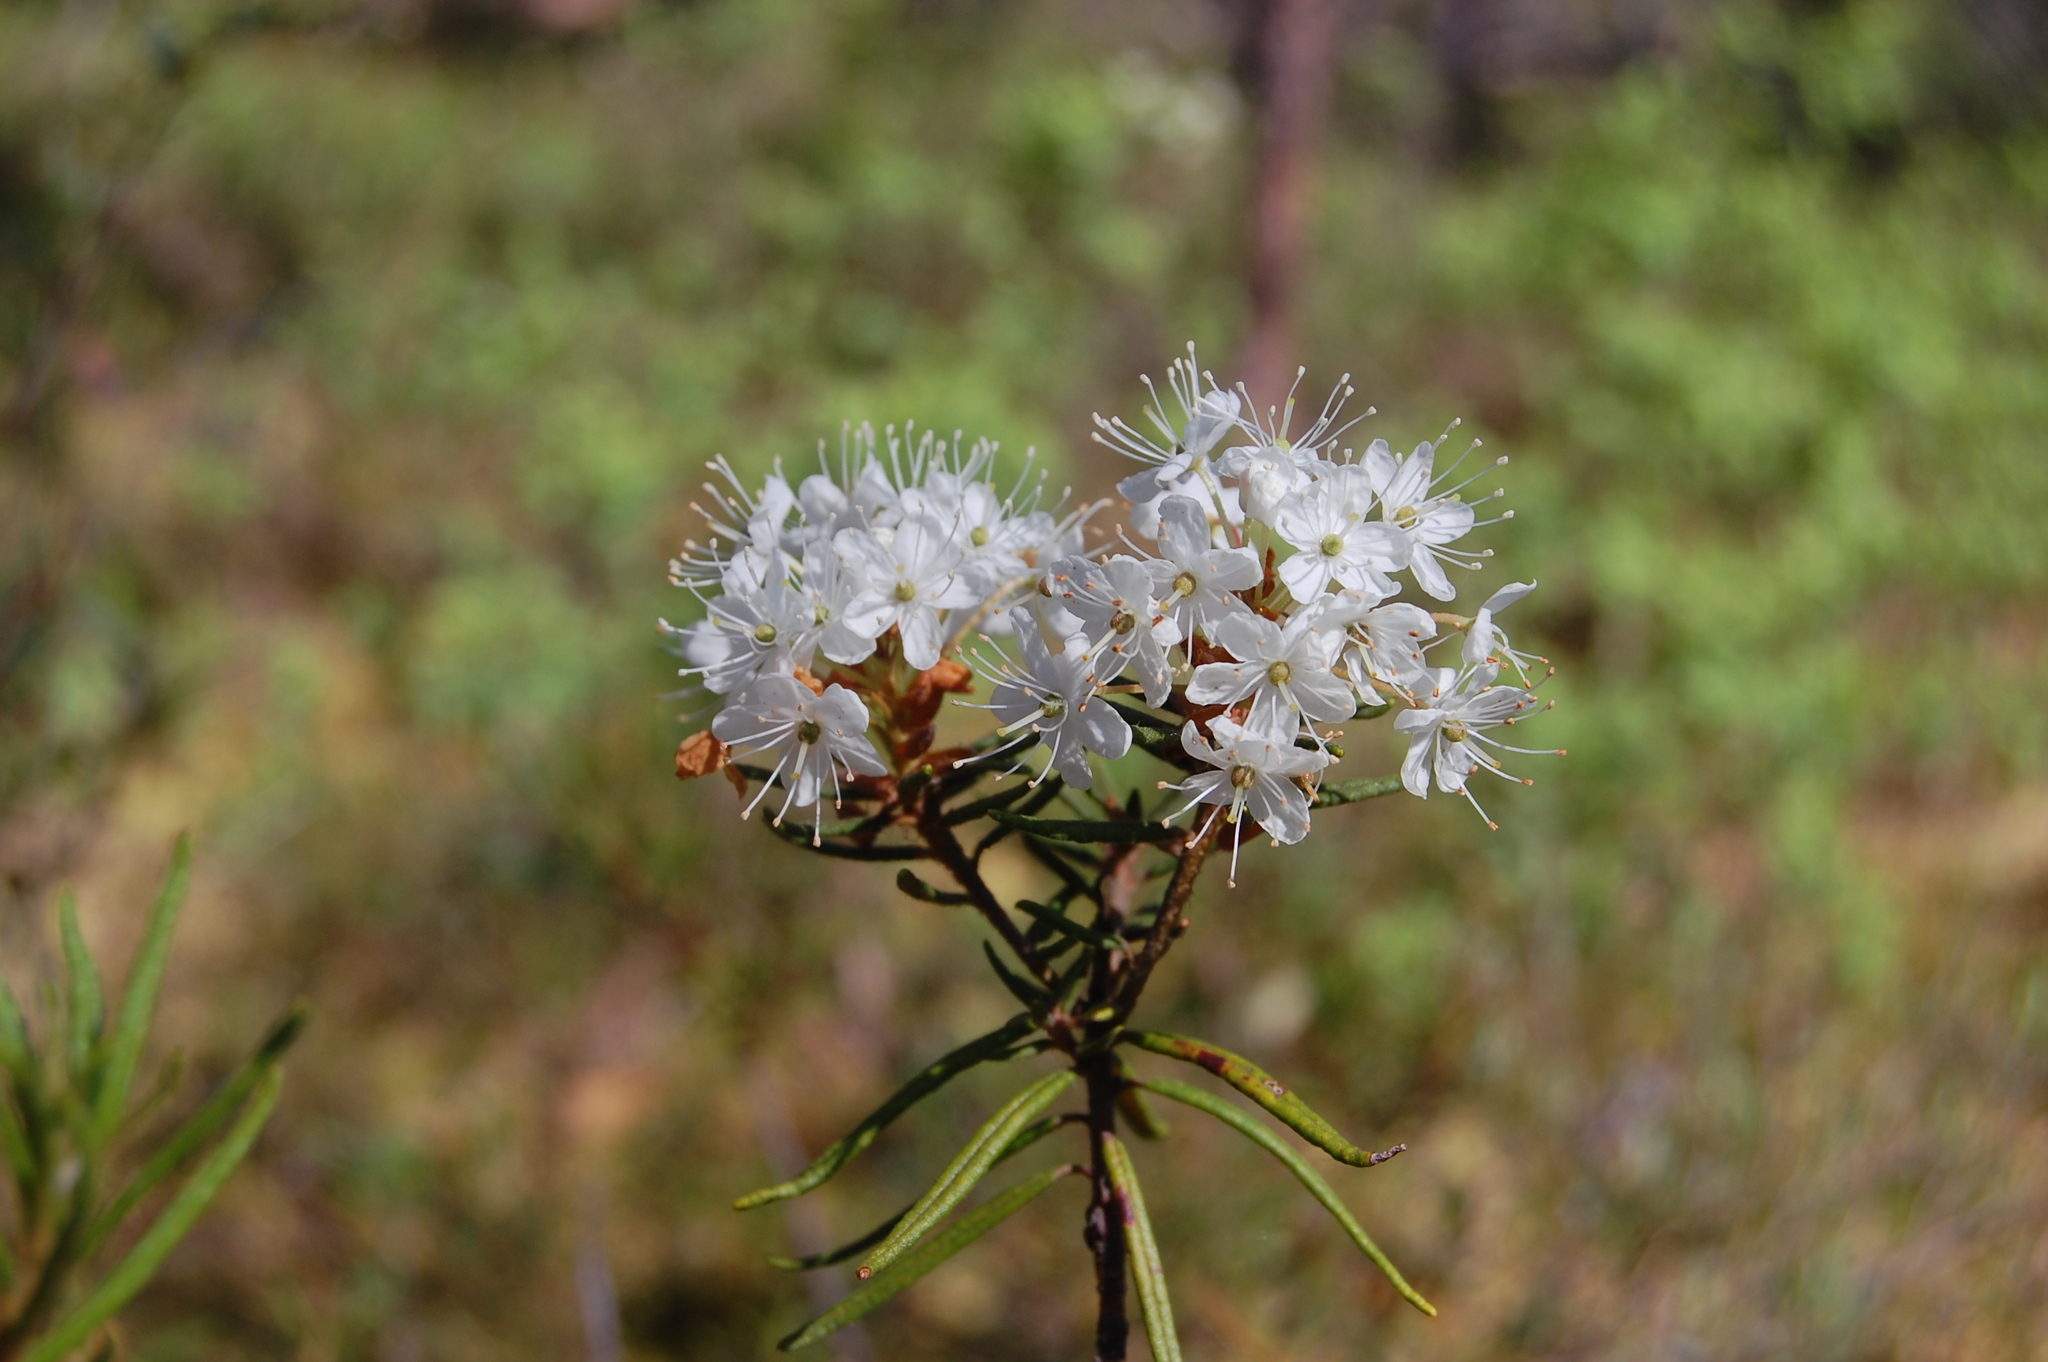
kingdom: Plantae
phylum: Tracheophyta
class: Magnoliopsida
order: Ericales
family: Ericaceae
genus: Rhododendron
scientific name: Rhododendron tomentosum
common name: Marsh labrador tea
